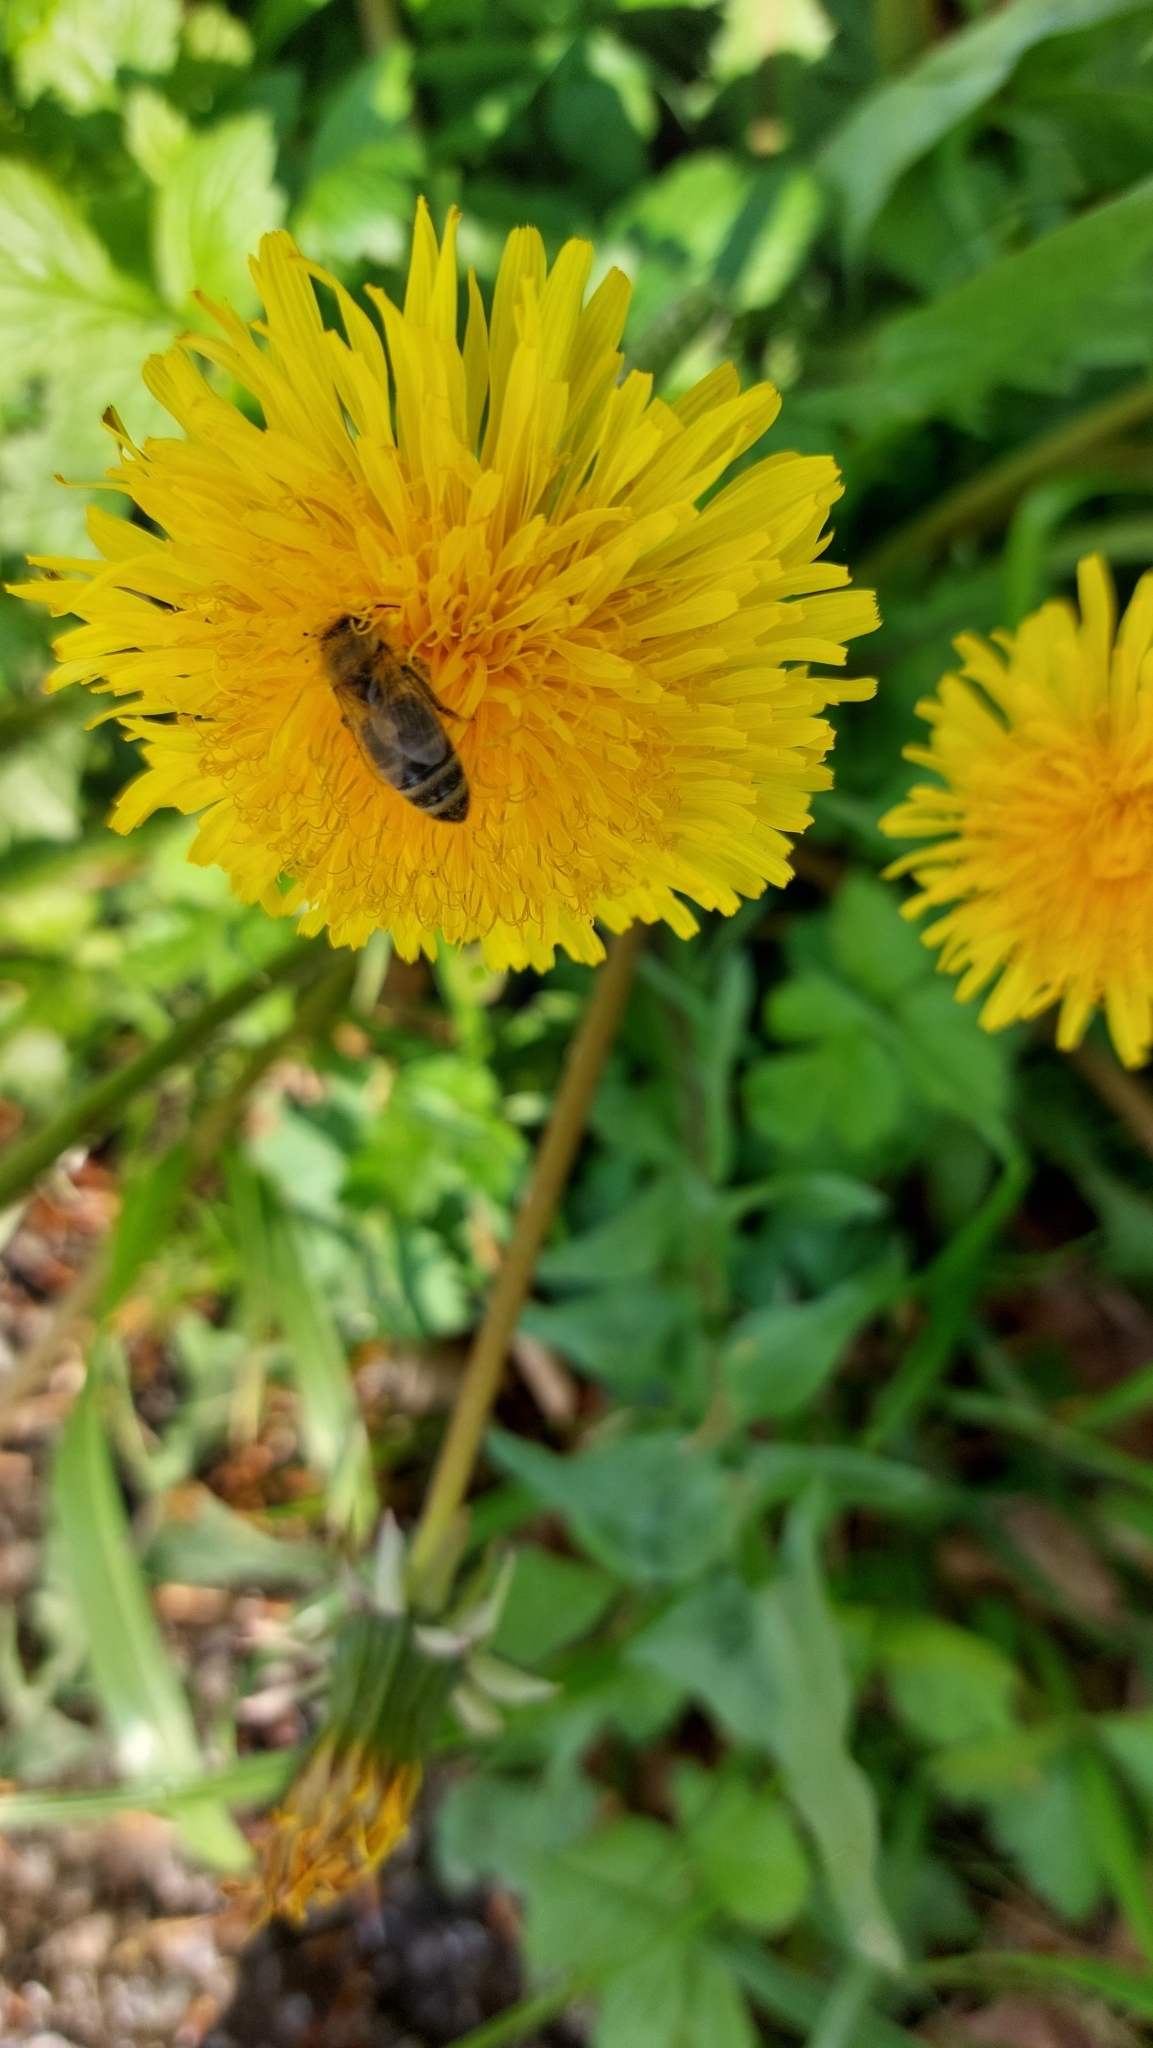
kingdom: Animalia
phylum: Arthropoda
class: Insecta
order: Hymenoptera
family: Apidae
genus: Apis
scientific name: Apis mellifera
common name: Honey bee
